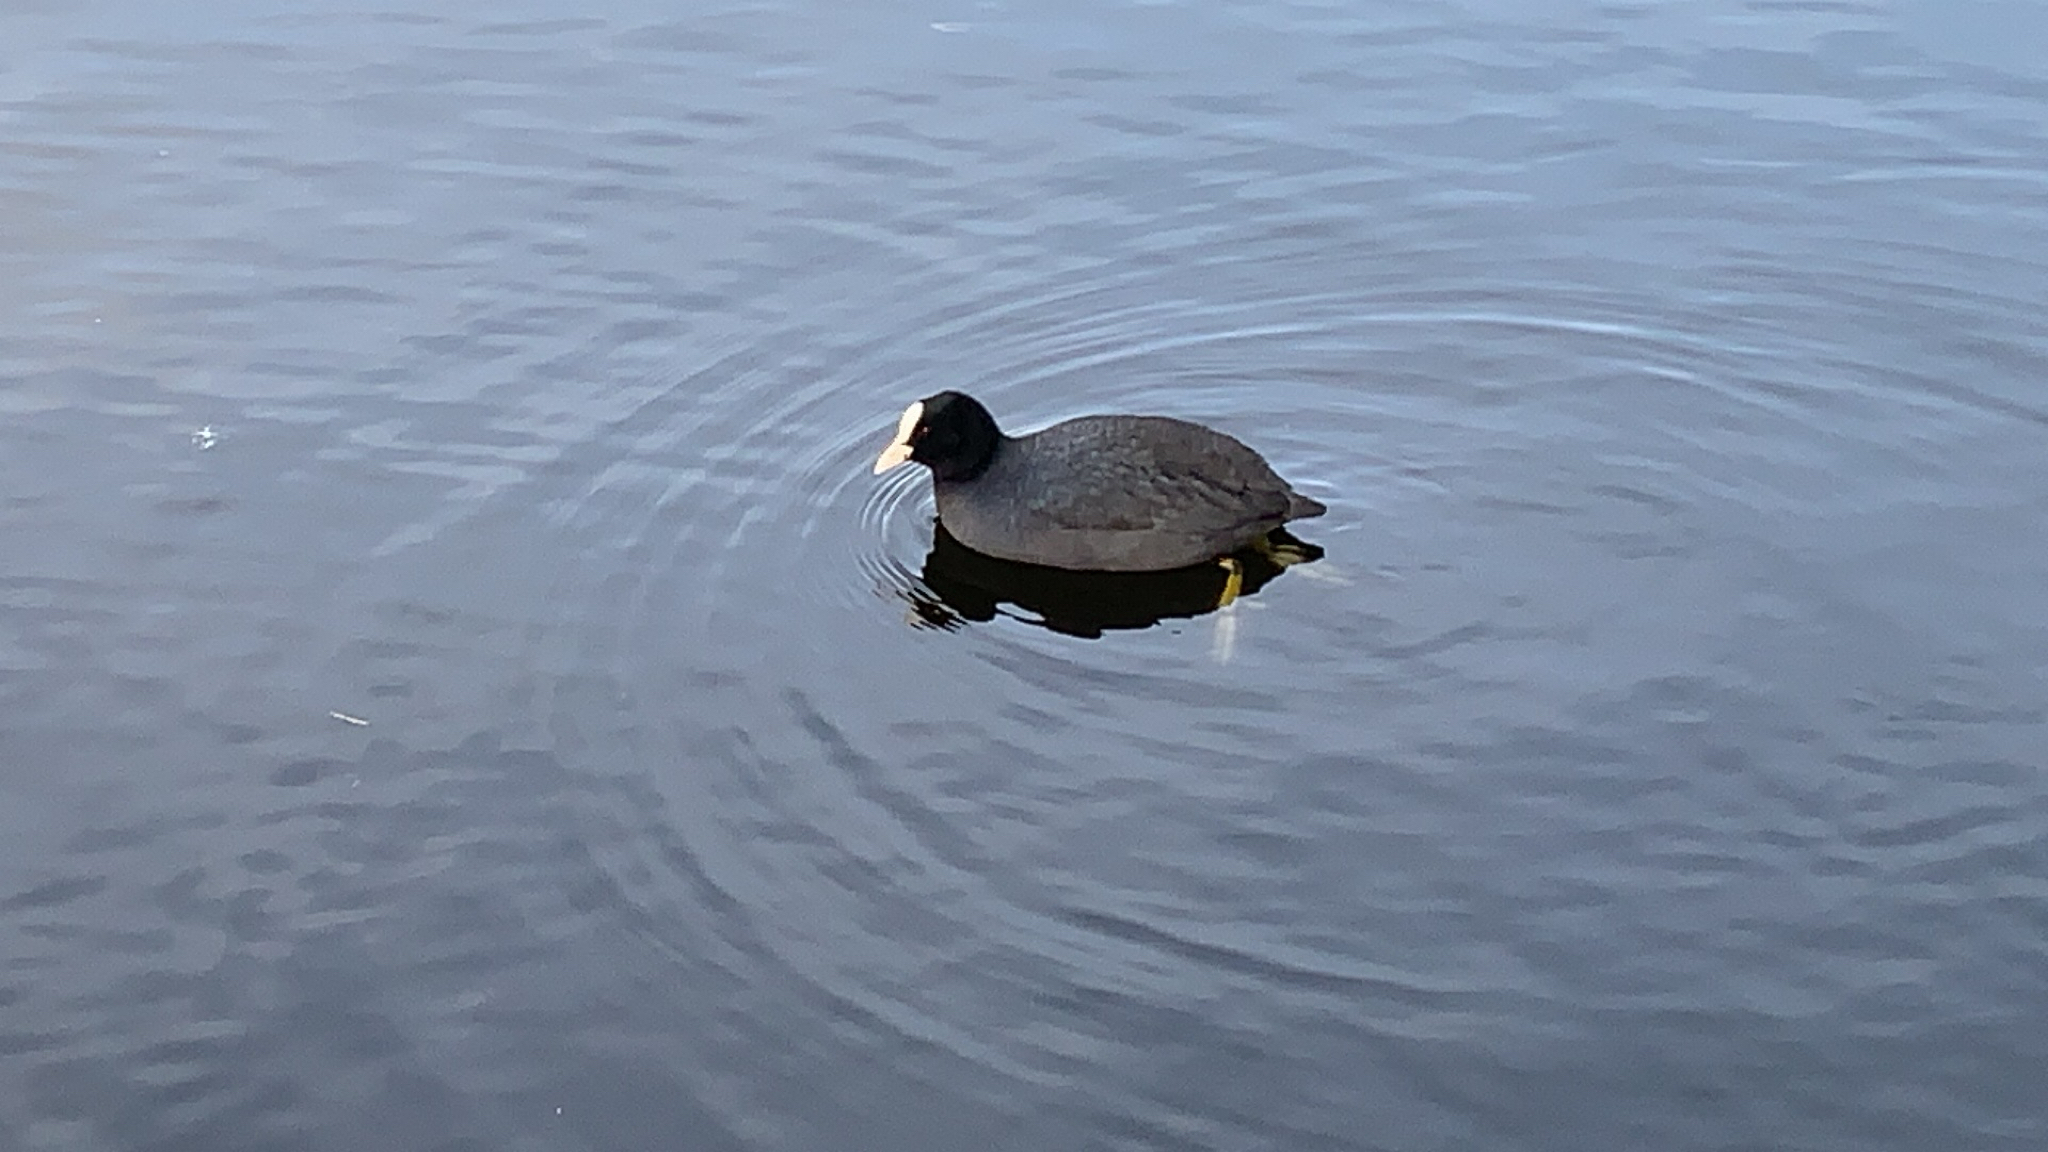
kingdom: Animalia
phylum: Chordata
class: Aves
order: Gruiformes
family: Rallidae
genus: Fulica
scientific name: Fulica atra
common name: Eurasian coot
